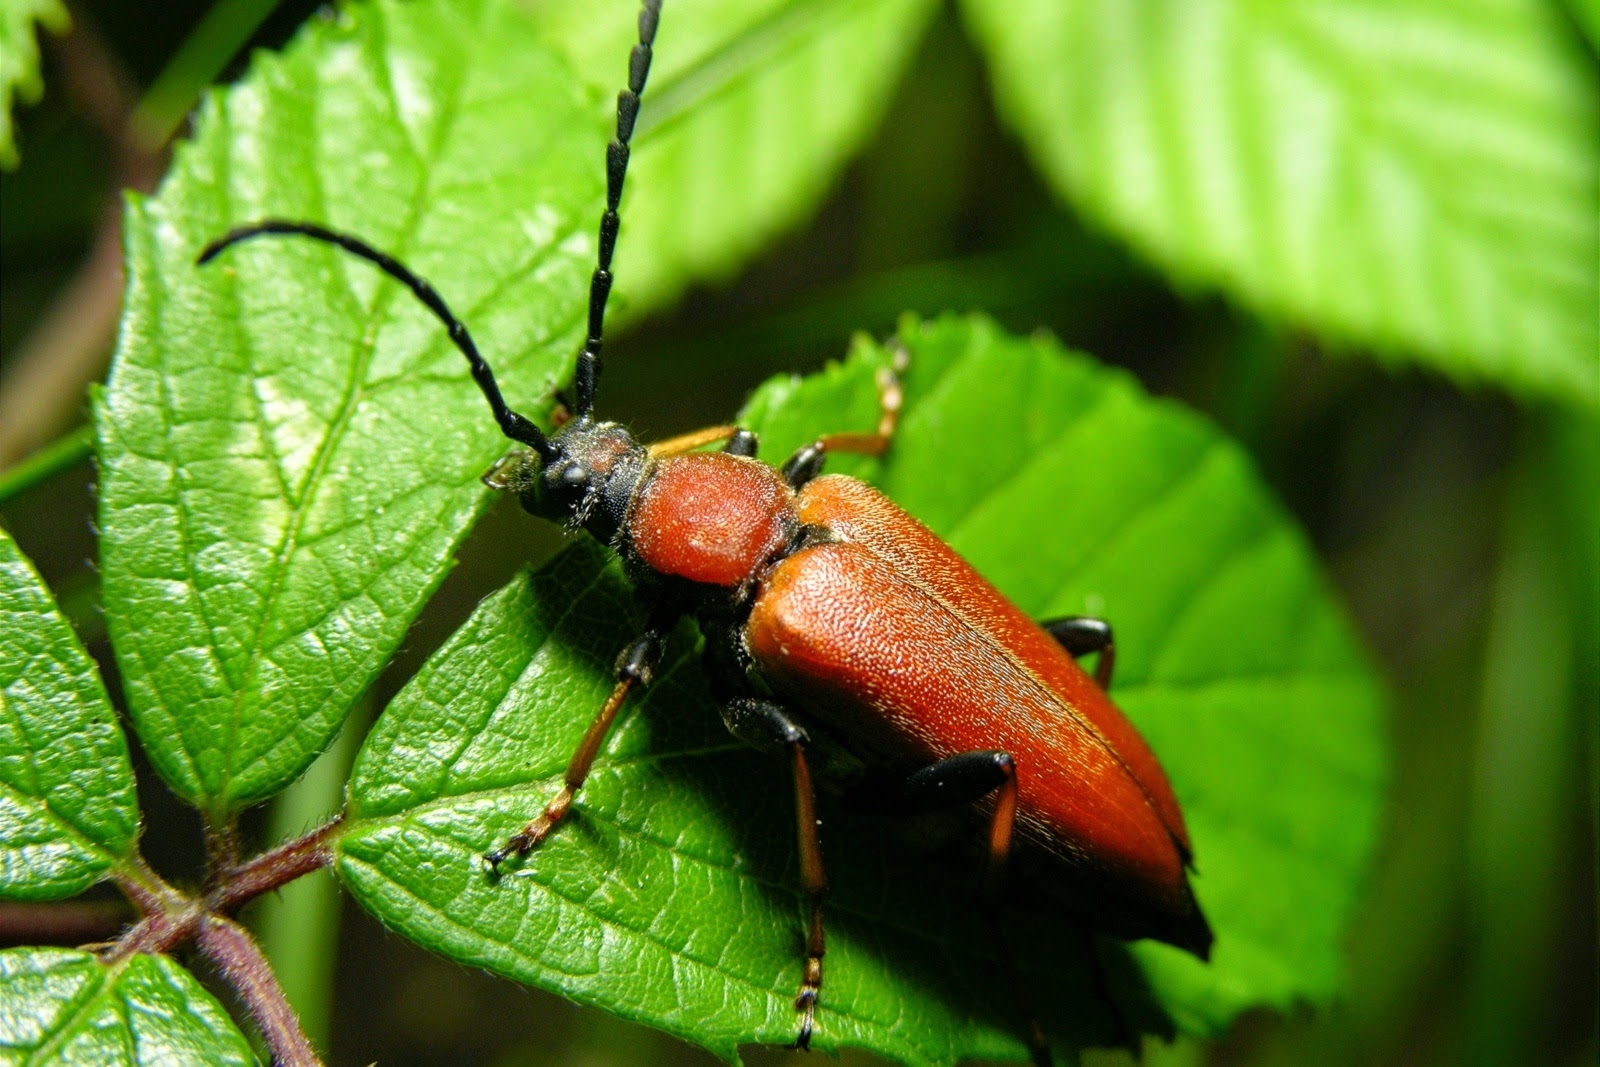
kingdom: Animalia
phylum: Arthropoda
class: Insecta
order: Coleoptera
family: Cerambycidae
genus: Stictoleptura
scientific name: Stictoleptura rubra
